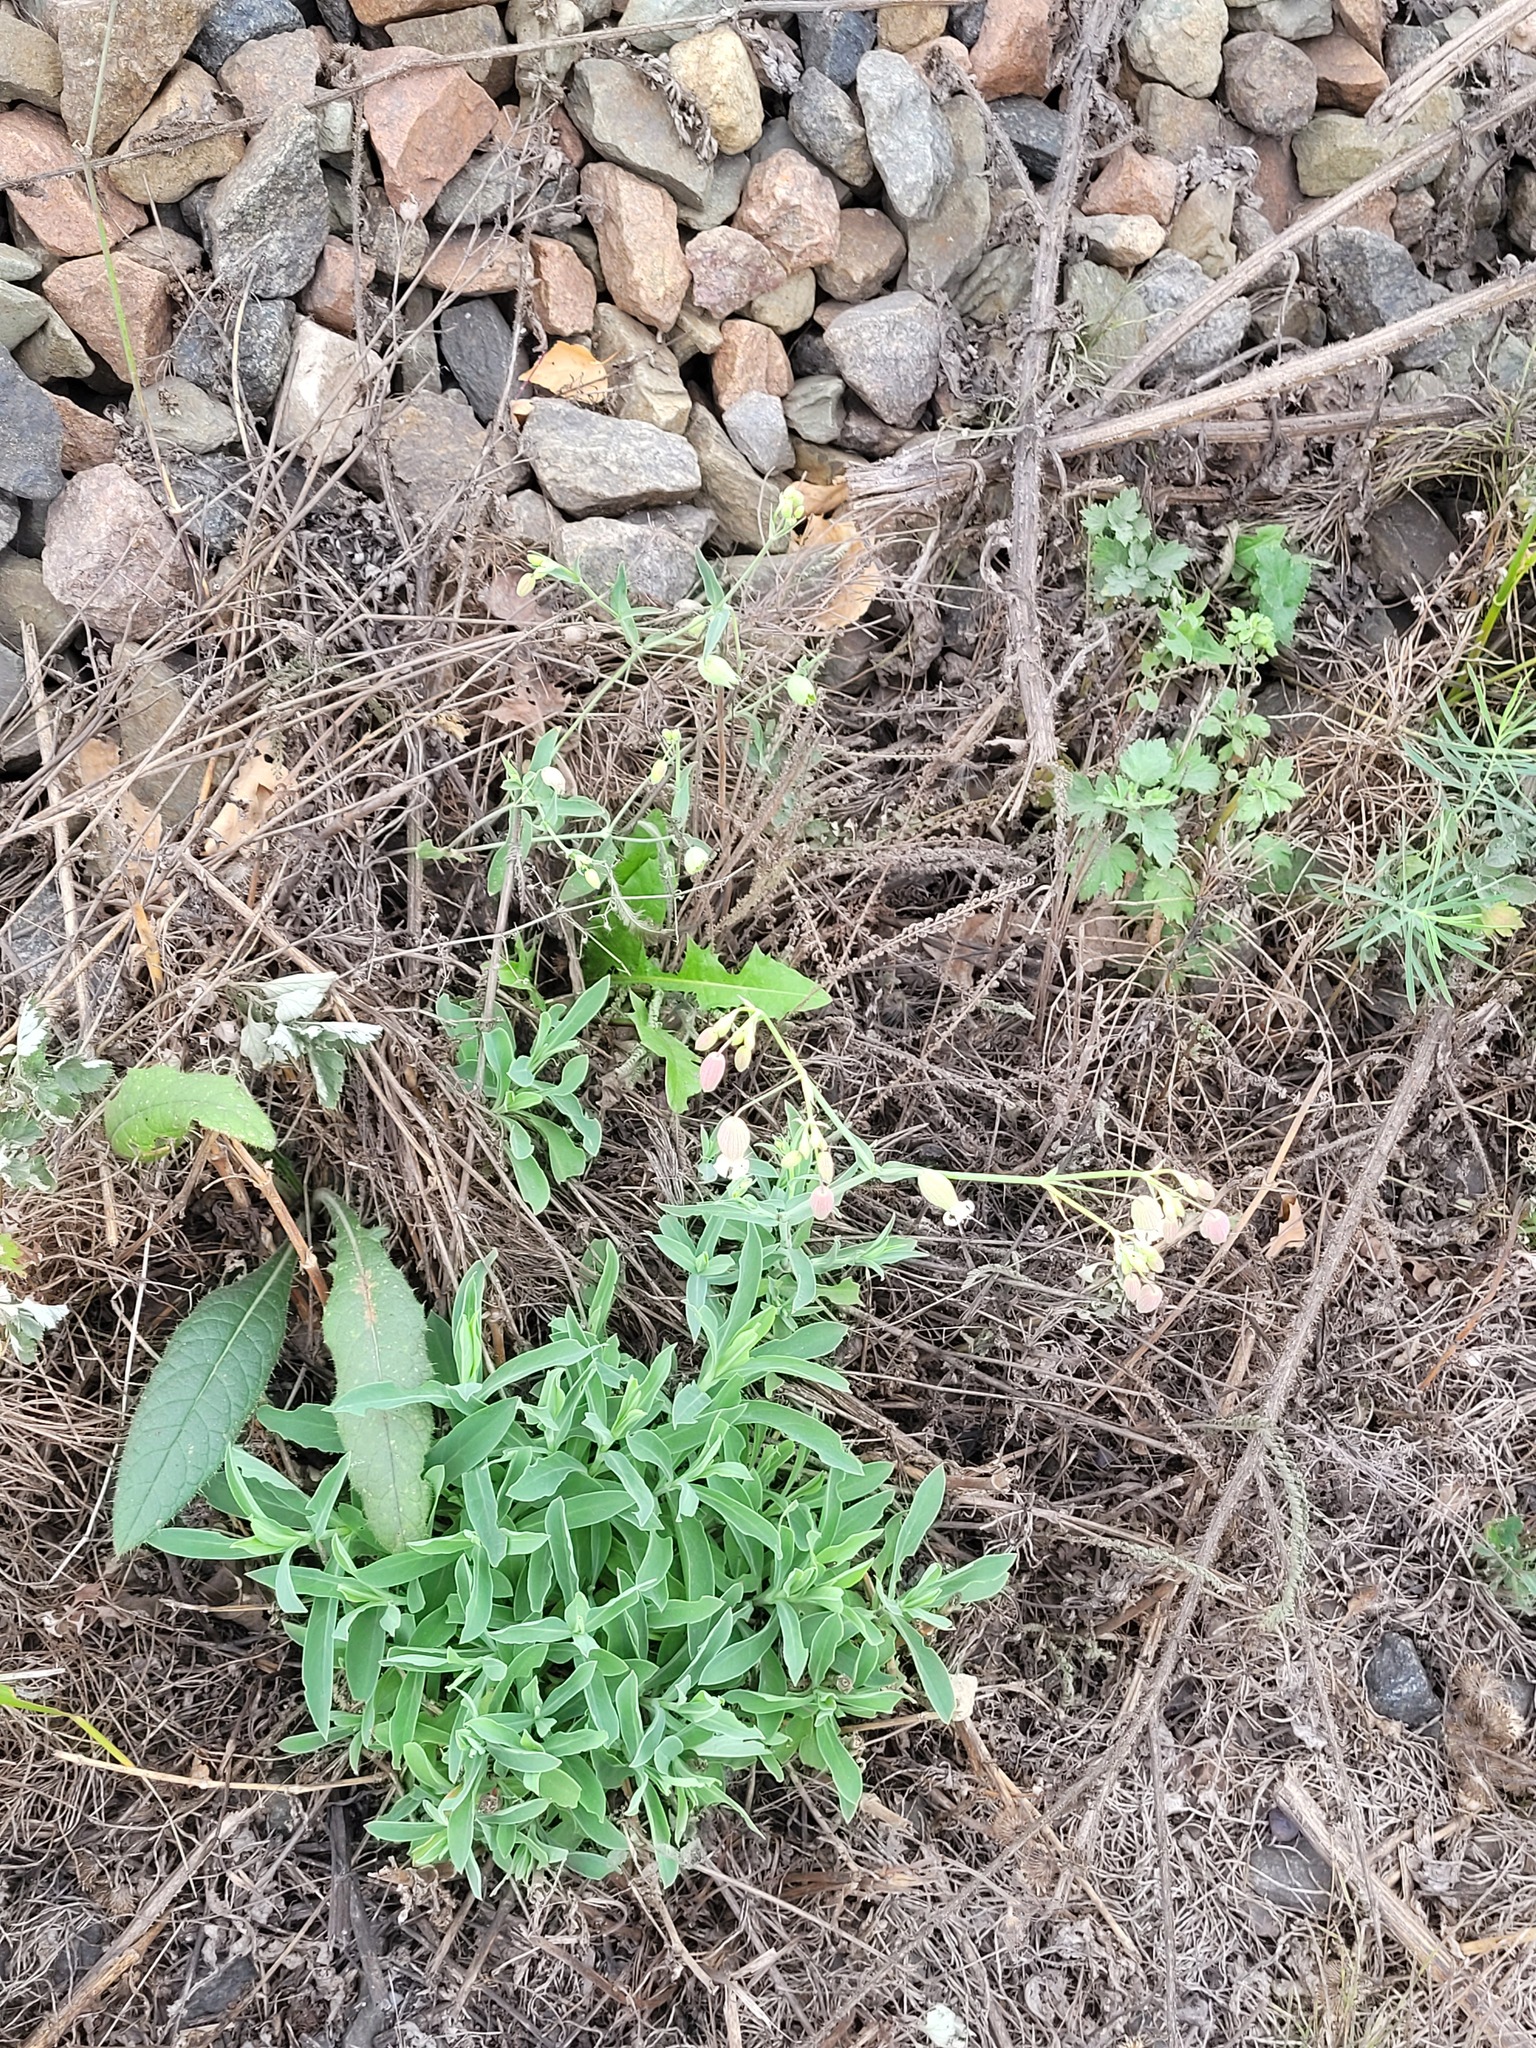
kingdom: Plantae
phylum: Tracheophyta
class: Magnoliopsida
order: Caryophyllales
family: Caryophyllaceae
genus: Silene
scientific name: Silene vulgaris
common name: Bladder campion
